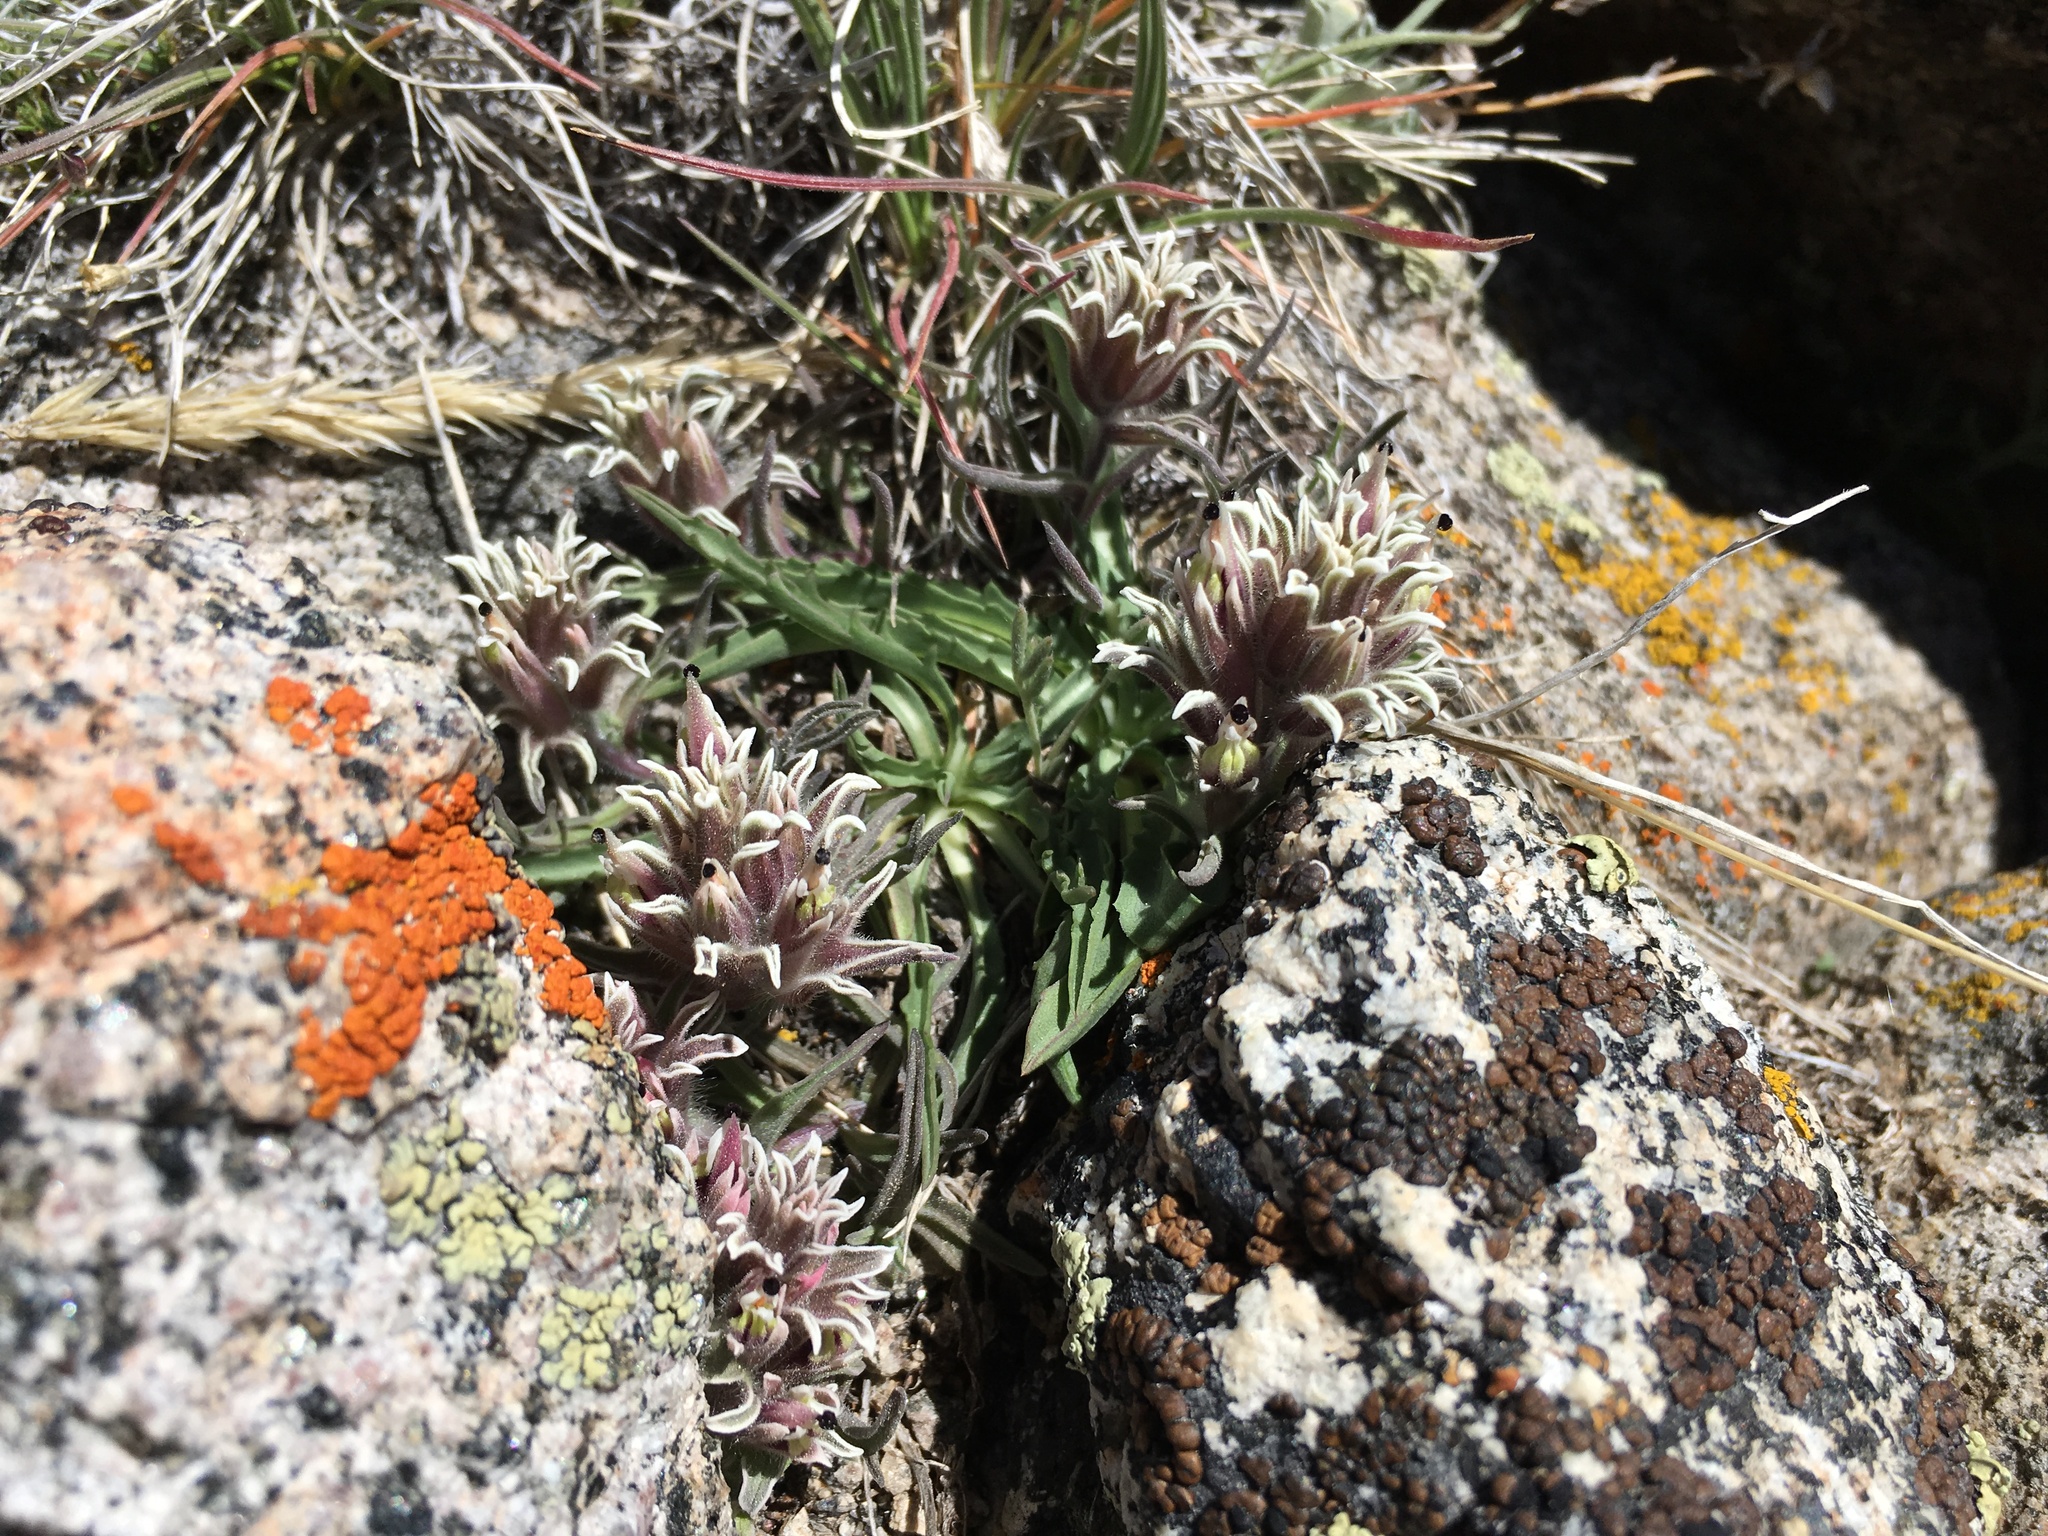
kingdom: Plantae
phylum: Tracheophyta
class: Magnoliopsida
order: Lamiales
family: Orobanchaceae
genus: Castilleja
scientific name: Castilleja nana
